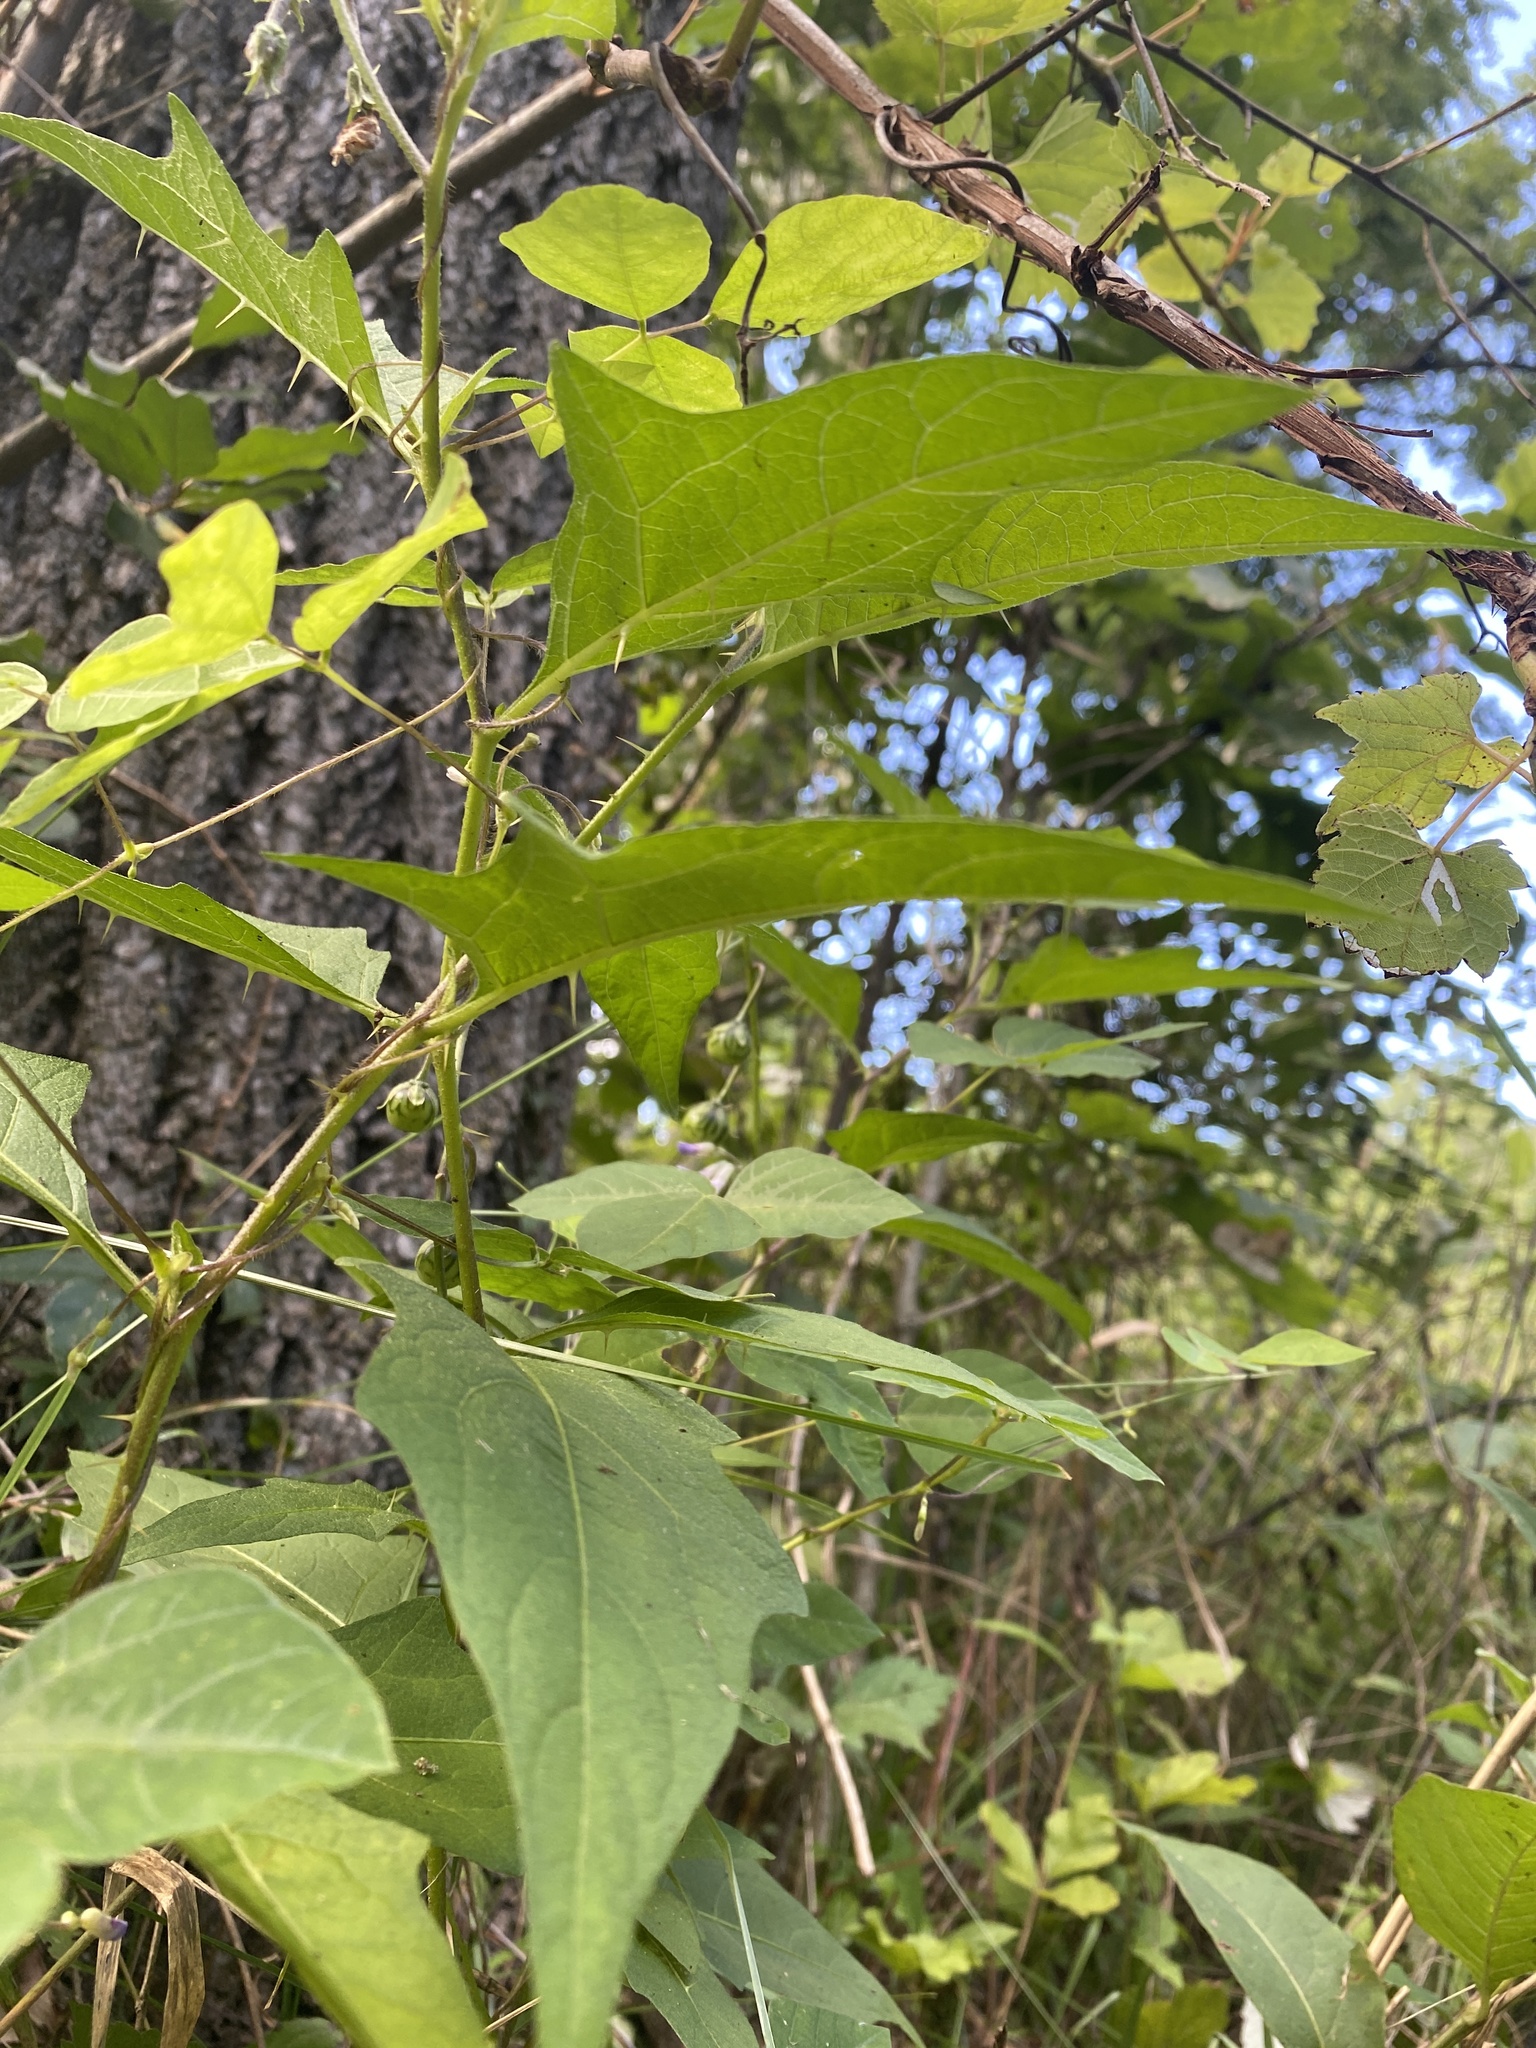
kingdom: Plantae
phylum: Tracheophyta
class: Magnoliopsida
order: Solanales
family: Solanaceae
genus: Solanum
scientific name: Solanum carolinense
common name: Horse-nettle
